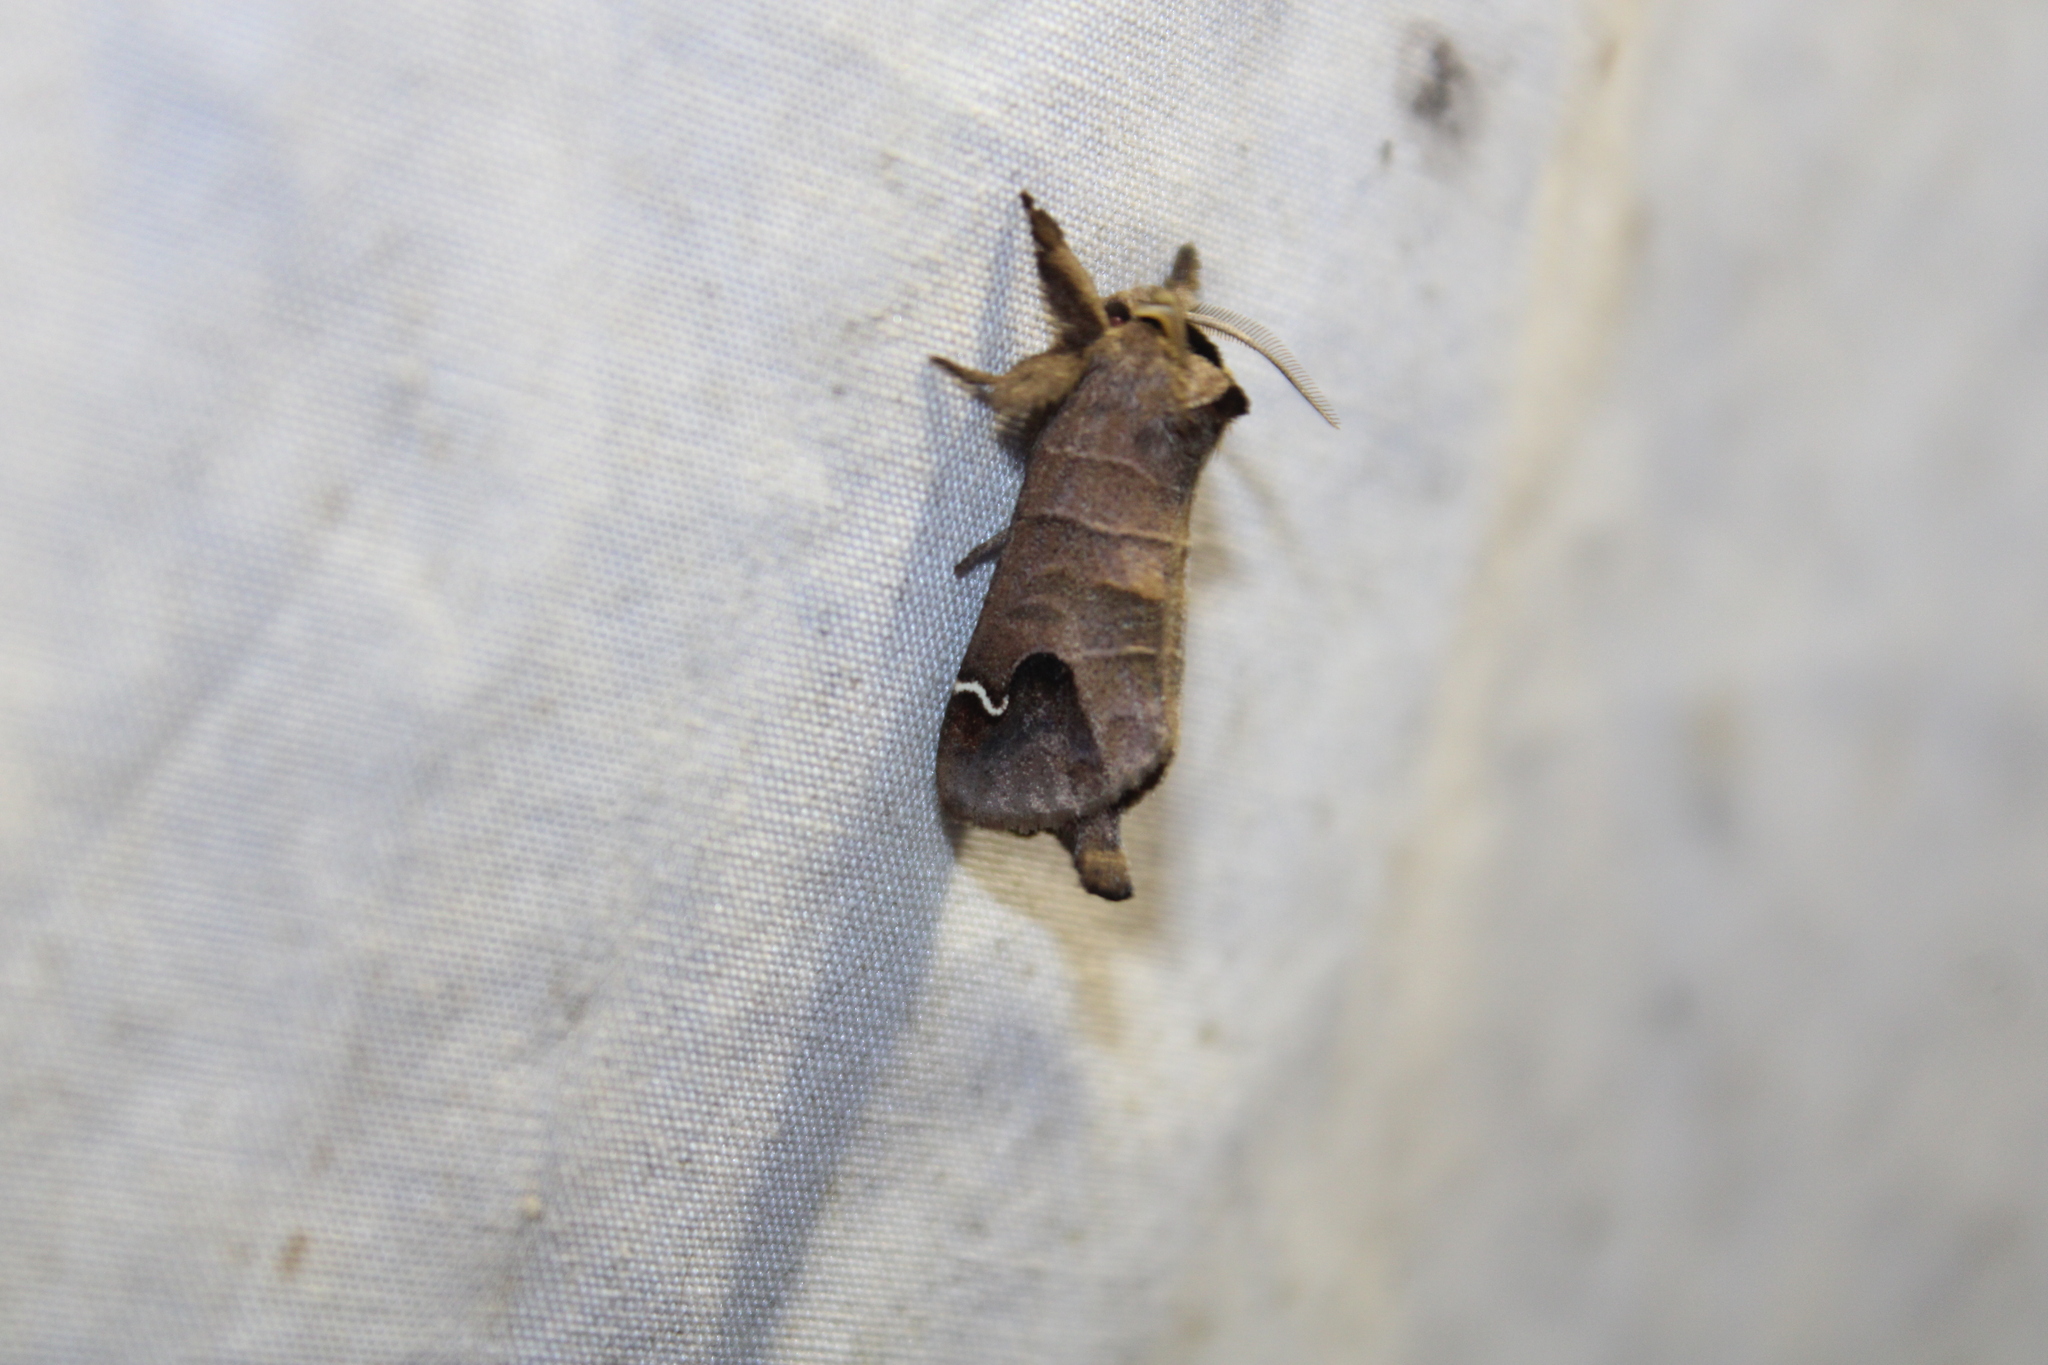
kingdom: Animalia
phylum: Arthropoda
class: Insecta
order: Lepidoptera
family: Notodontidae
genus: Clostera
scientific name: Clostera albosigma
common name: Sigmoid prominent
